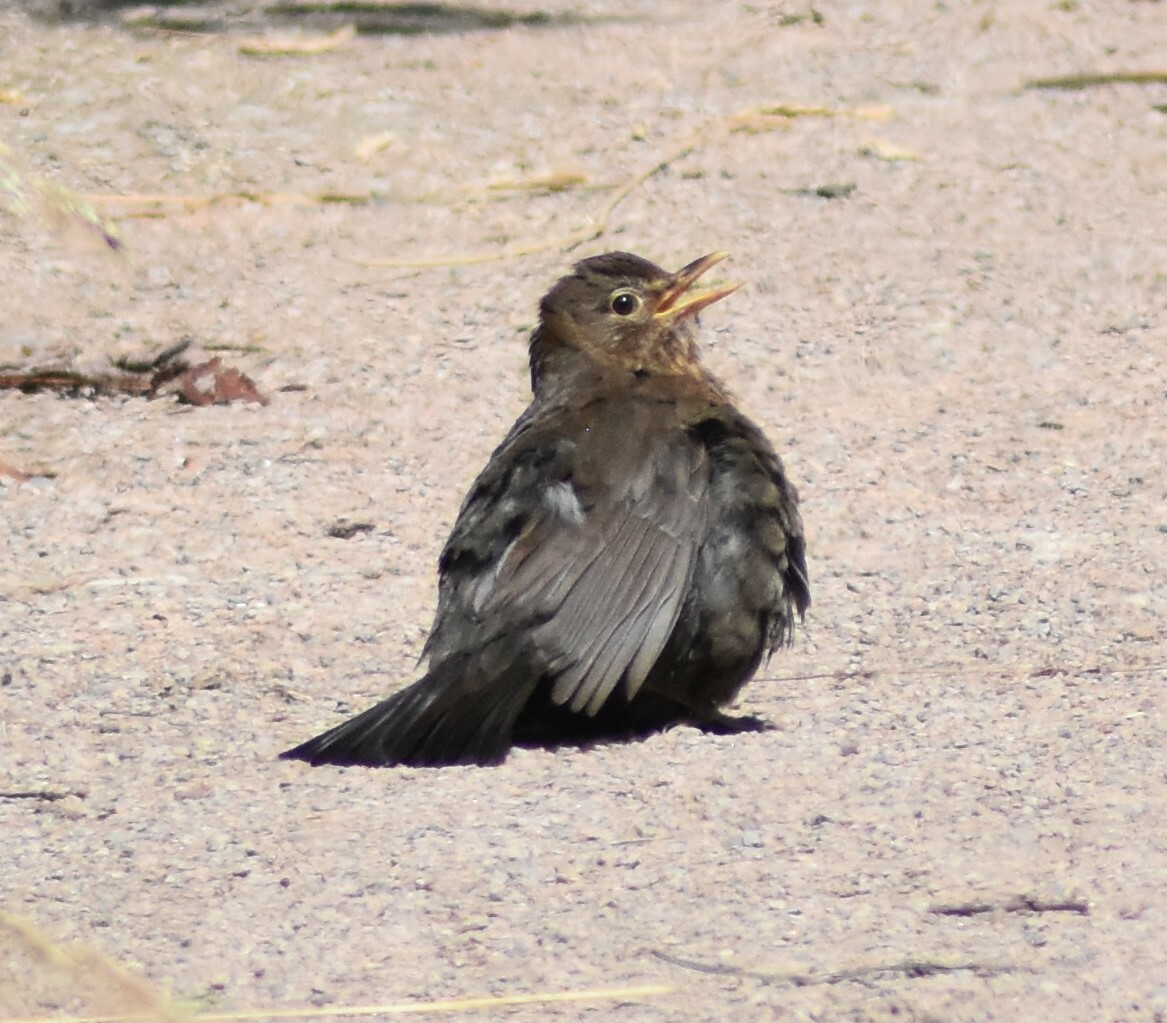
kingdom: Animalia
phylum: Chordata
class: Aves
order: Passeriformes
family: Turdidae
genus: Turdus
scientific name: Turdus merula
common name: Common blackbird
